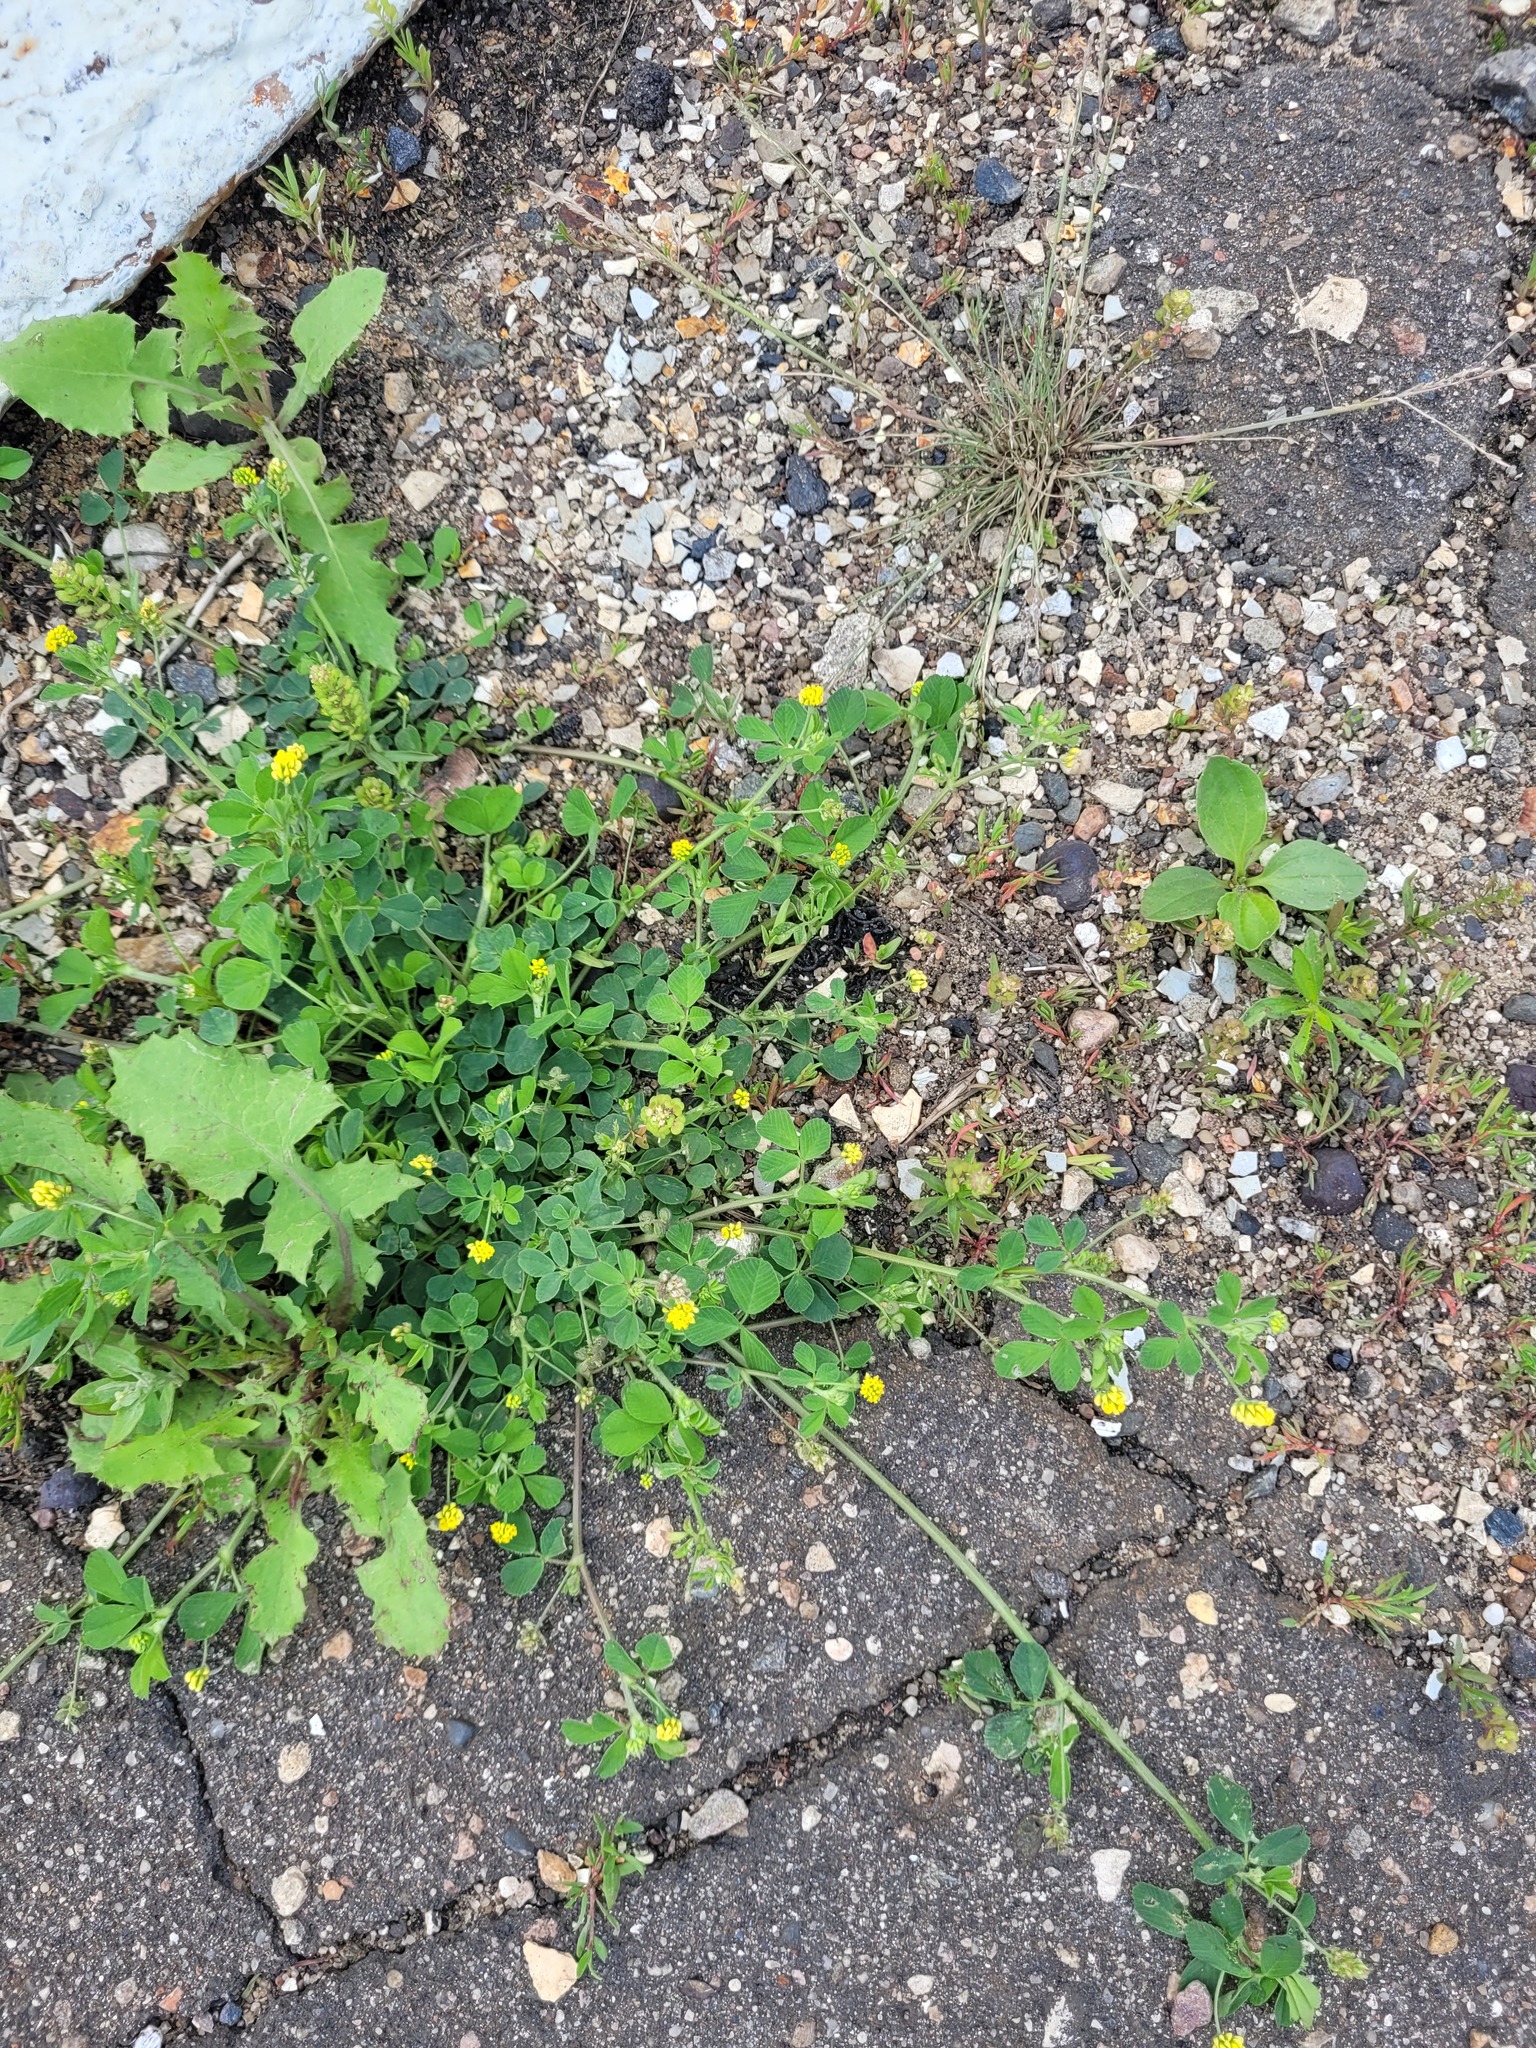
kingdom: Plantae
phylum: Tracheophyta
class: Magnoliopsida
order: Fabales
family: Fabaceae
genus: Medicago
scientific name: Medicago lupulina
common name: Black medick
